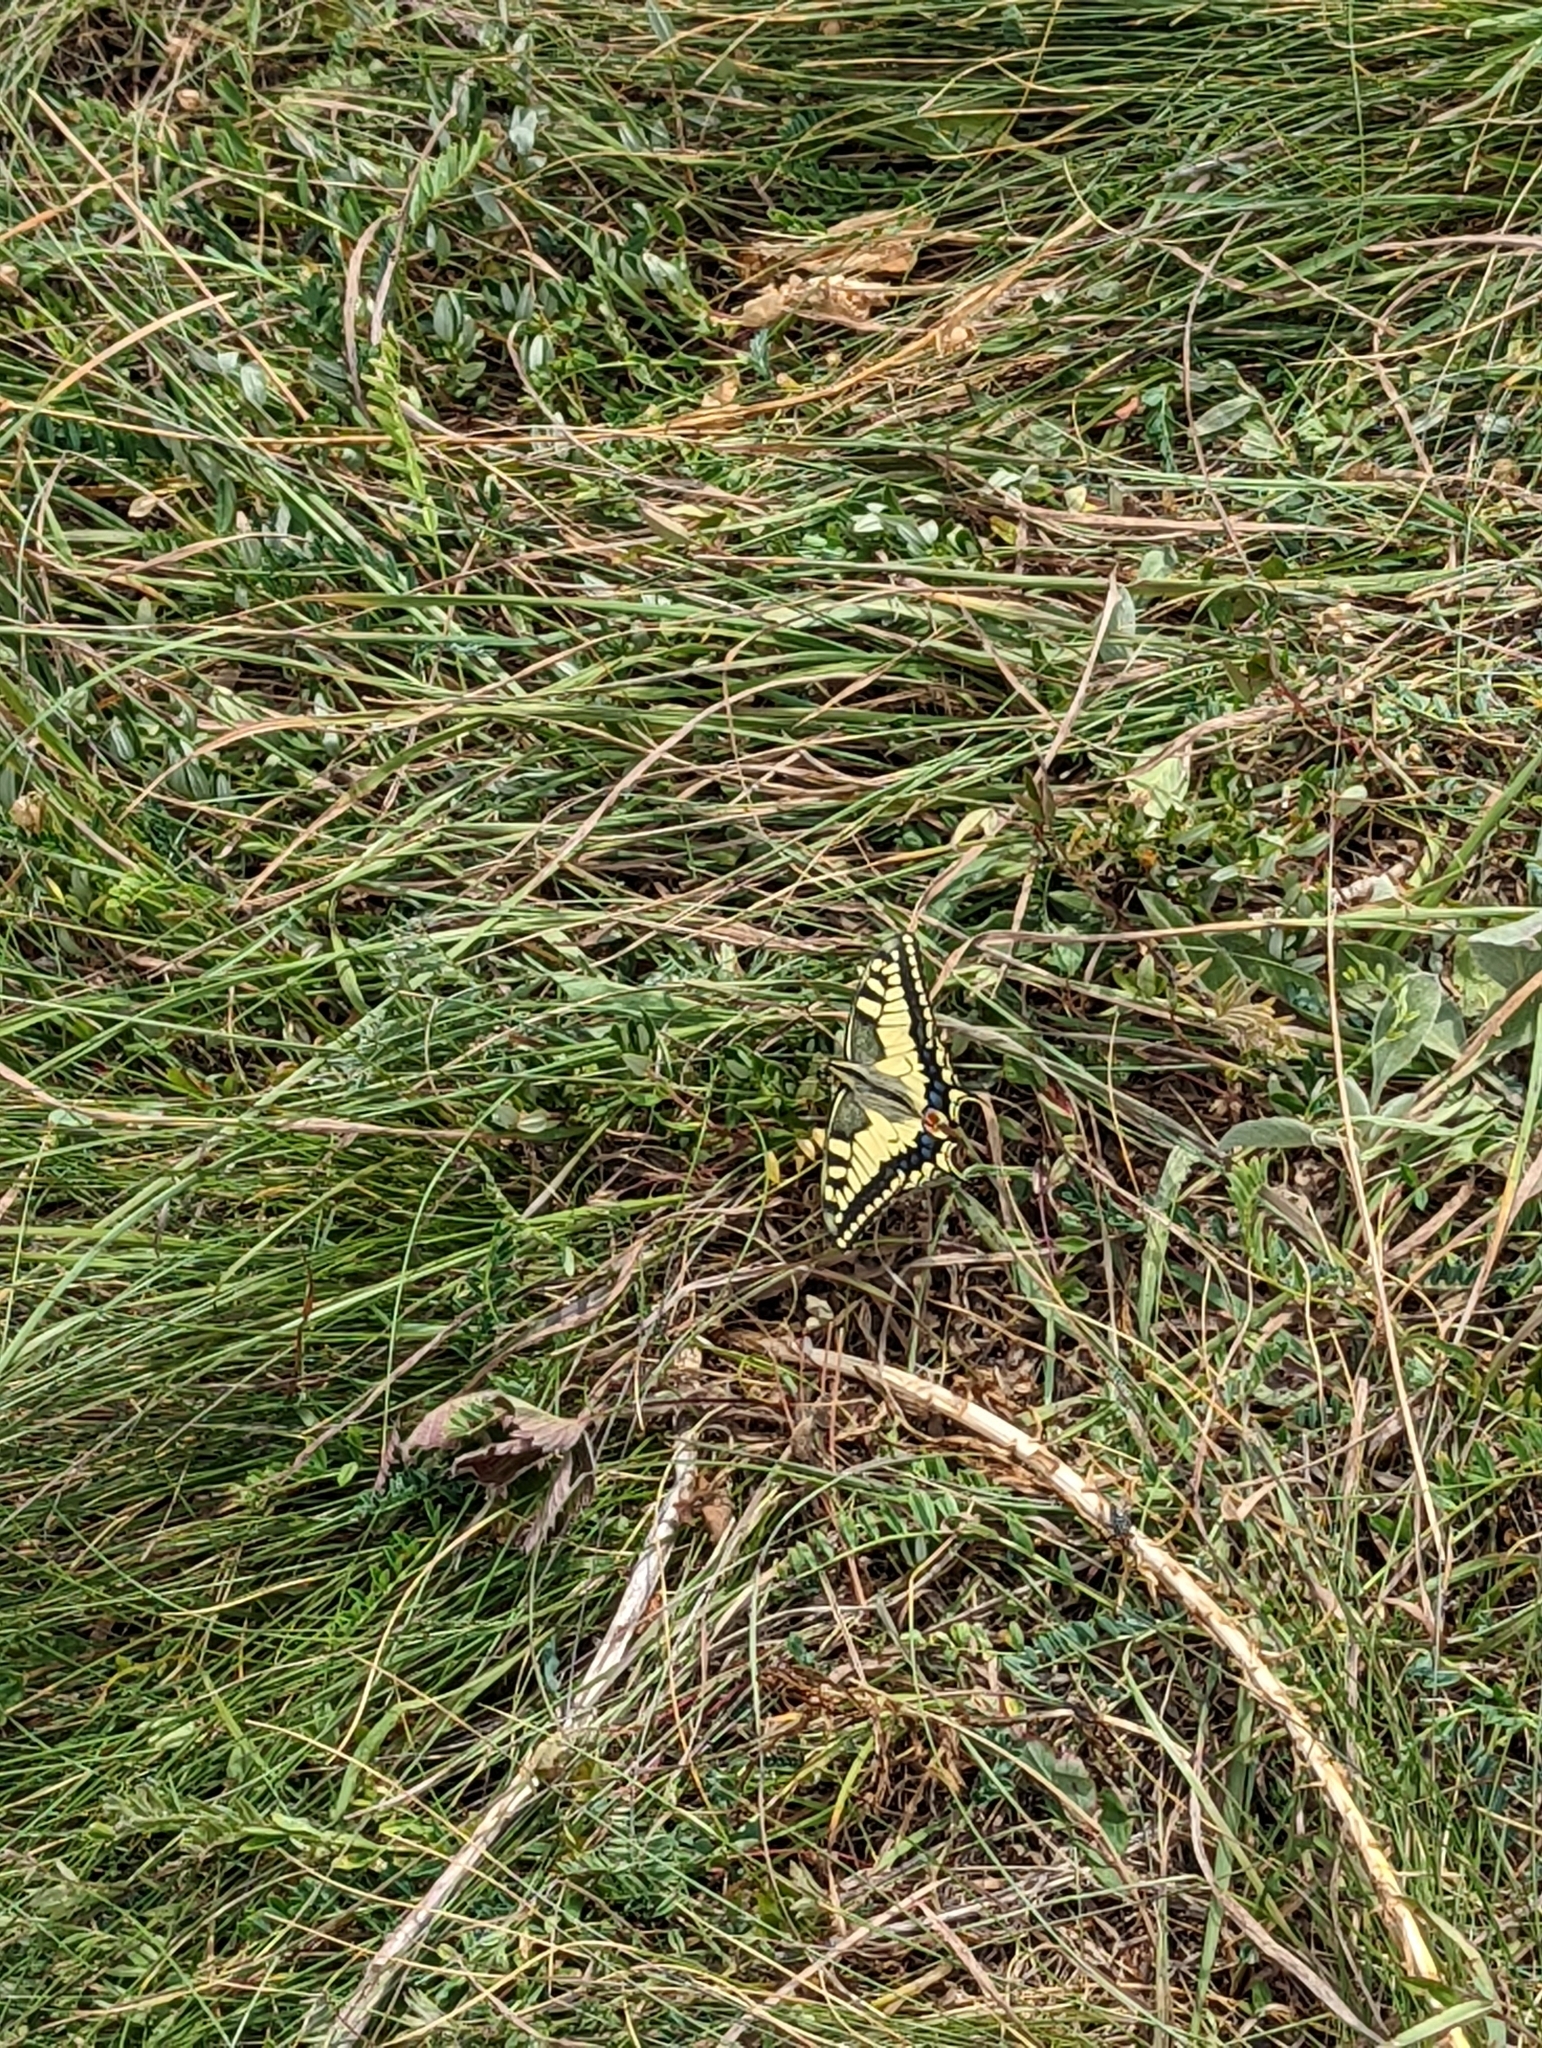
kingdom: Animalia
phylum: Arthropoda
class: Insecta
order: Lepidoptera
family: Papilionidae
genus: Papilio
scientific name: Papilio machaon
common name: Swallowtail
